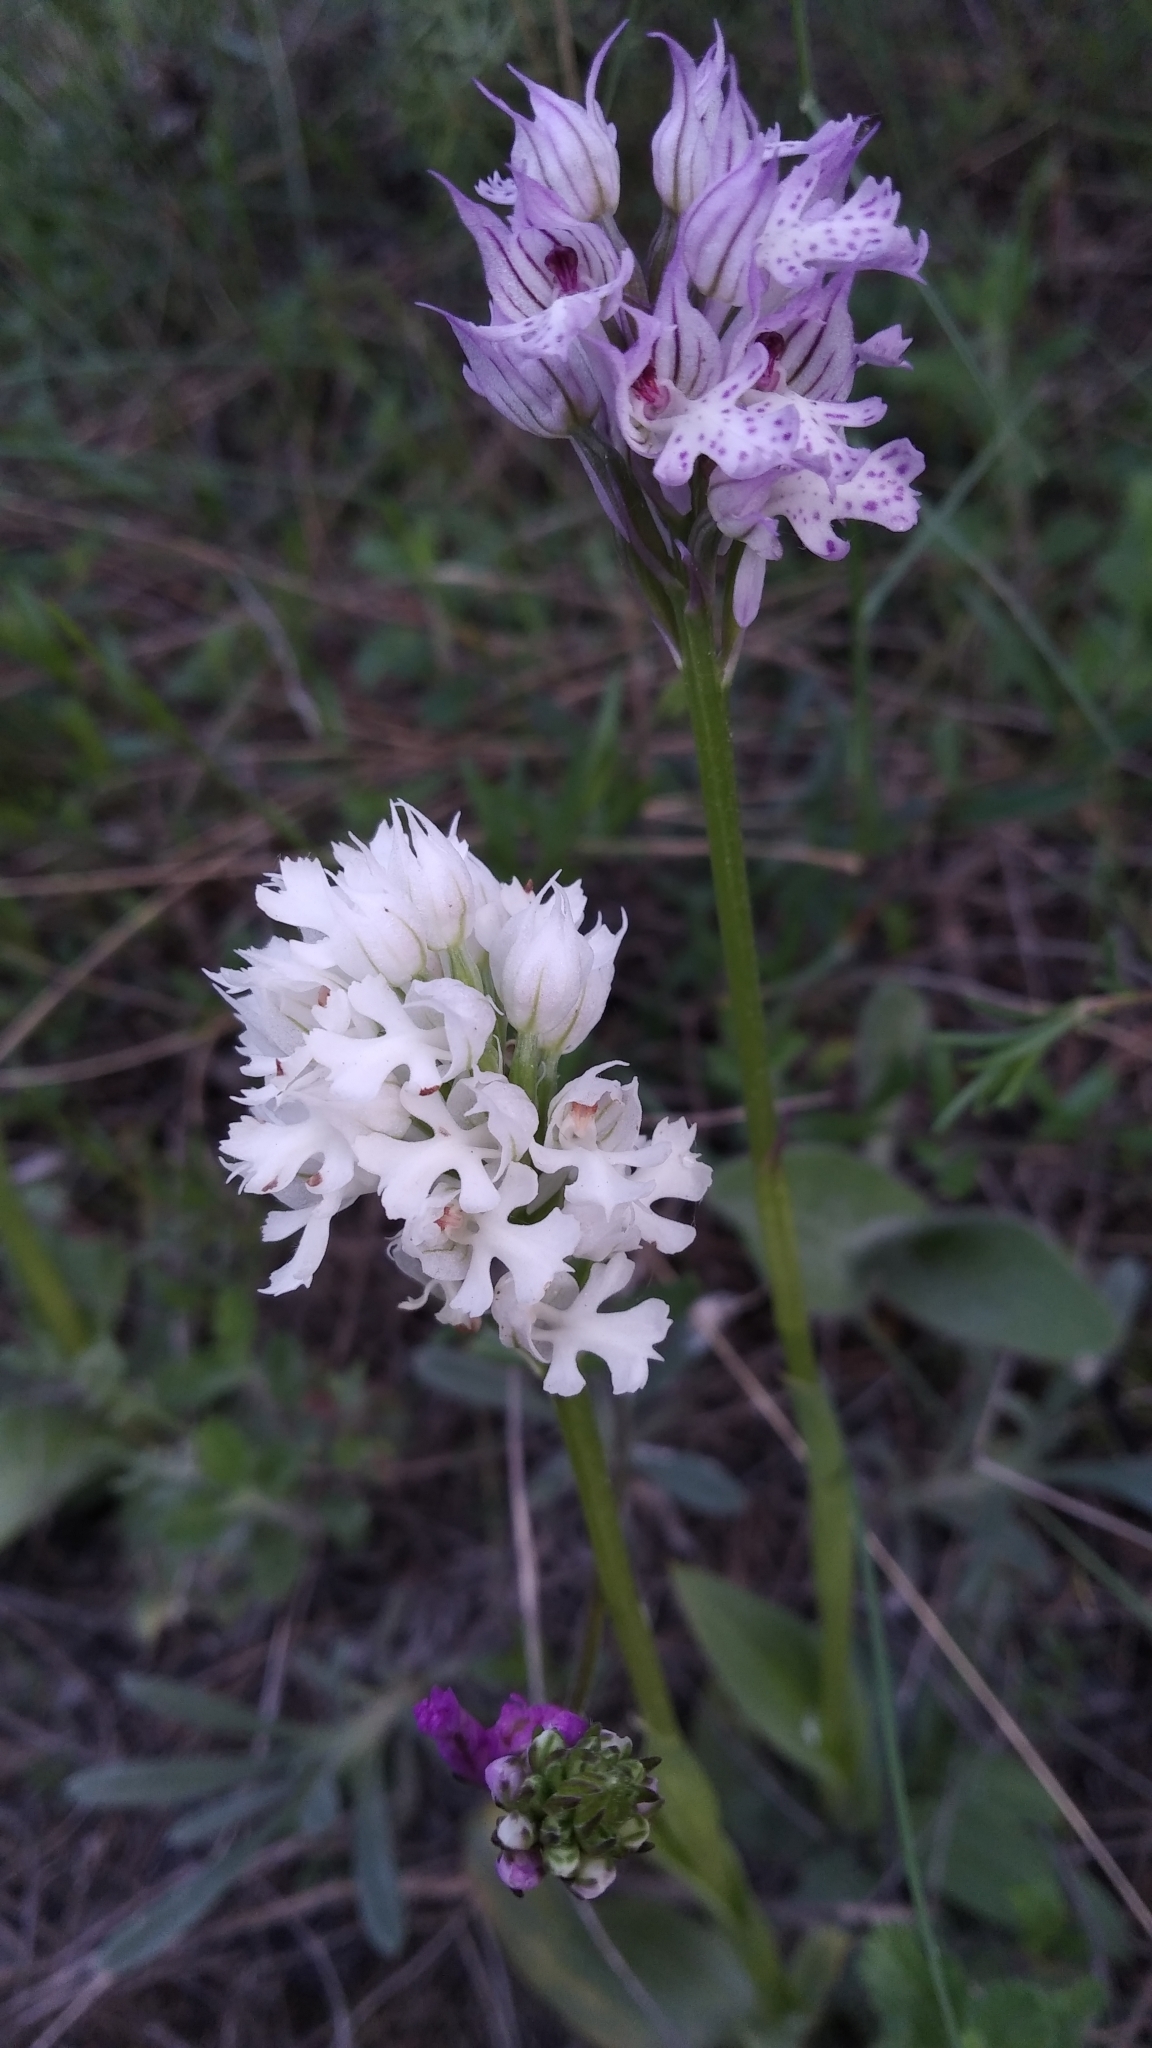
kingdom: Plantae
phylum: Tracheophyta
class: Liliopsida
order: Asparagales
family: Orchidaceae
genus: Neotinea
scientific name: Neotinea tridentata
